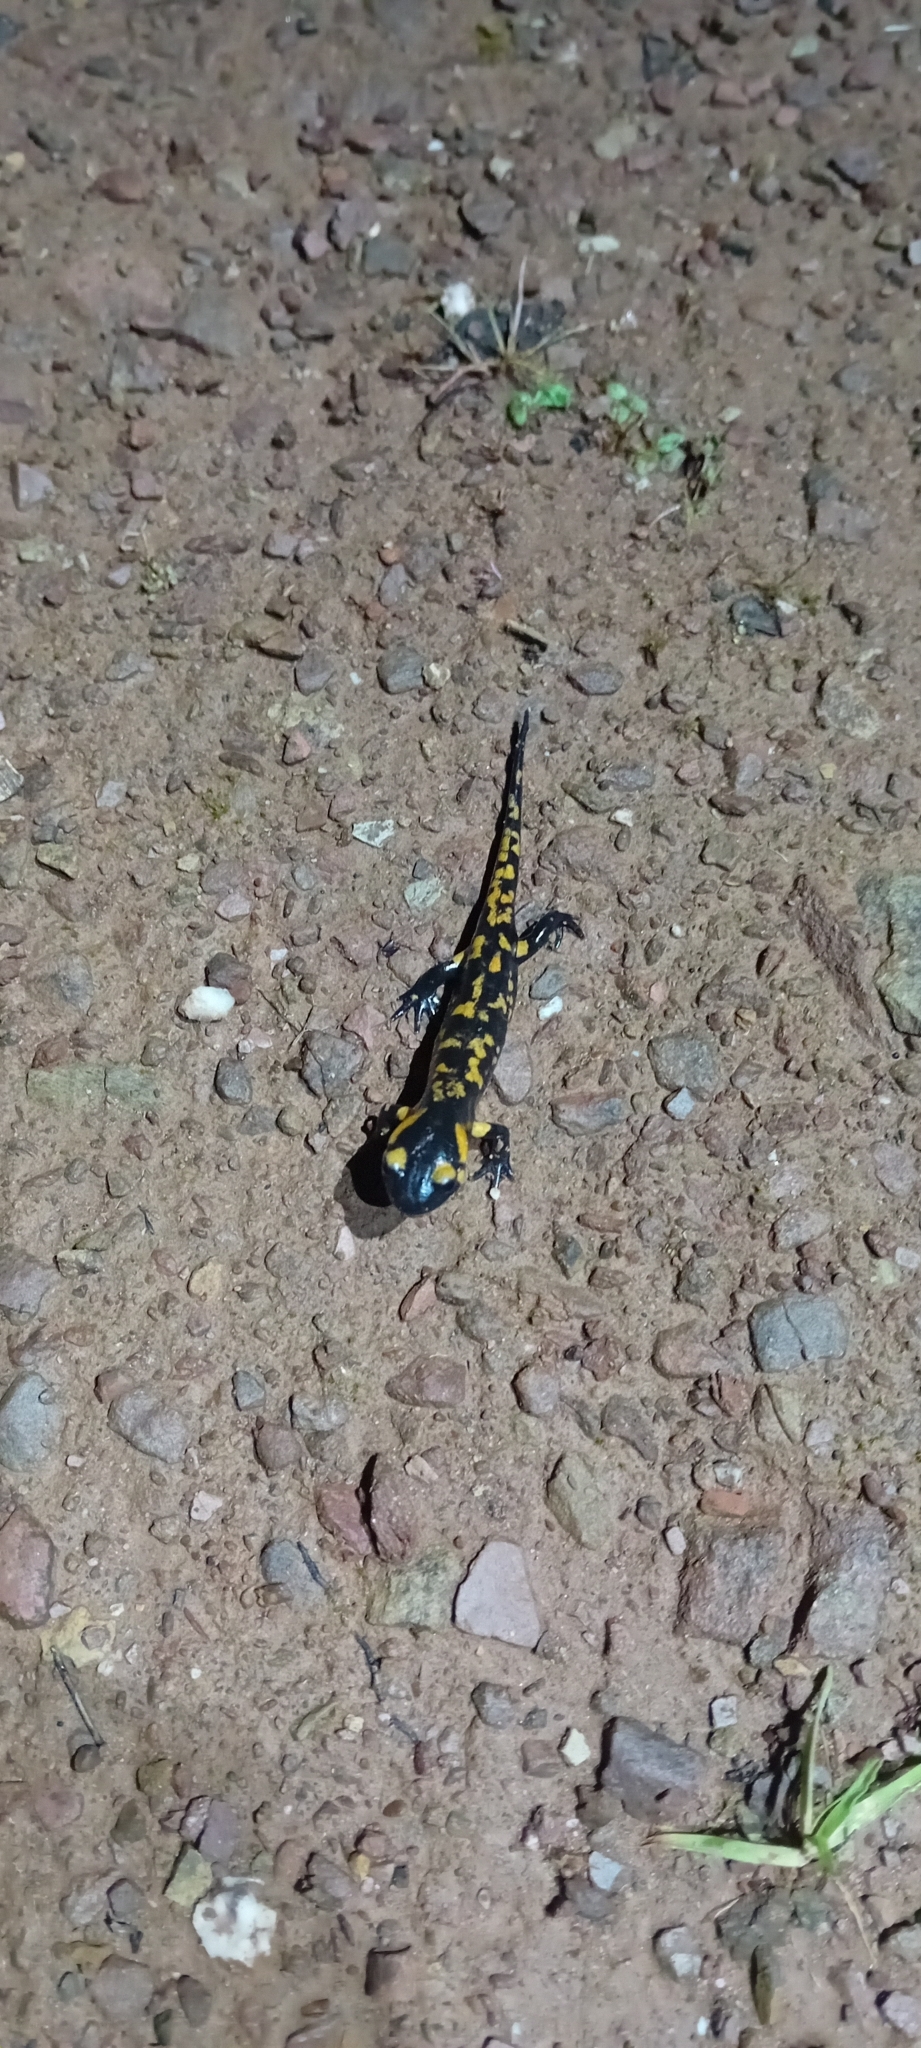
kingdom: Animalia
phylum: Chordata
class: Amphibia
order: Caudata
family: Salamandridae
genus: Salamandra
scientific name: Salamandra salamandra
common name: Fire salamander
